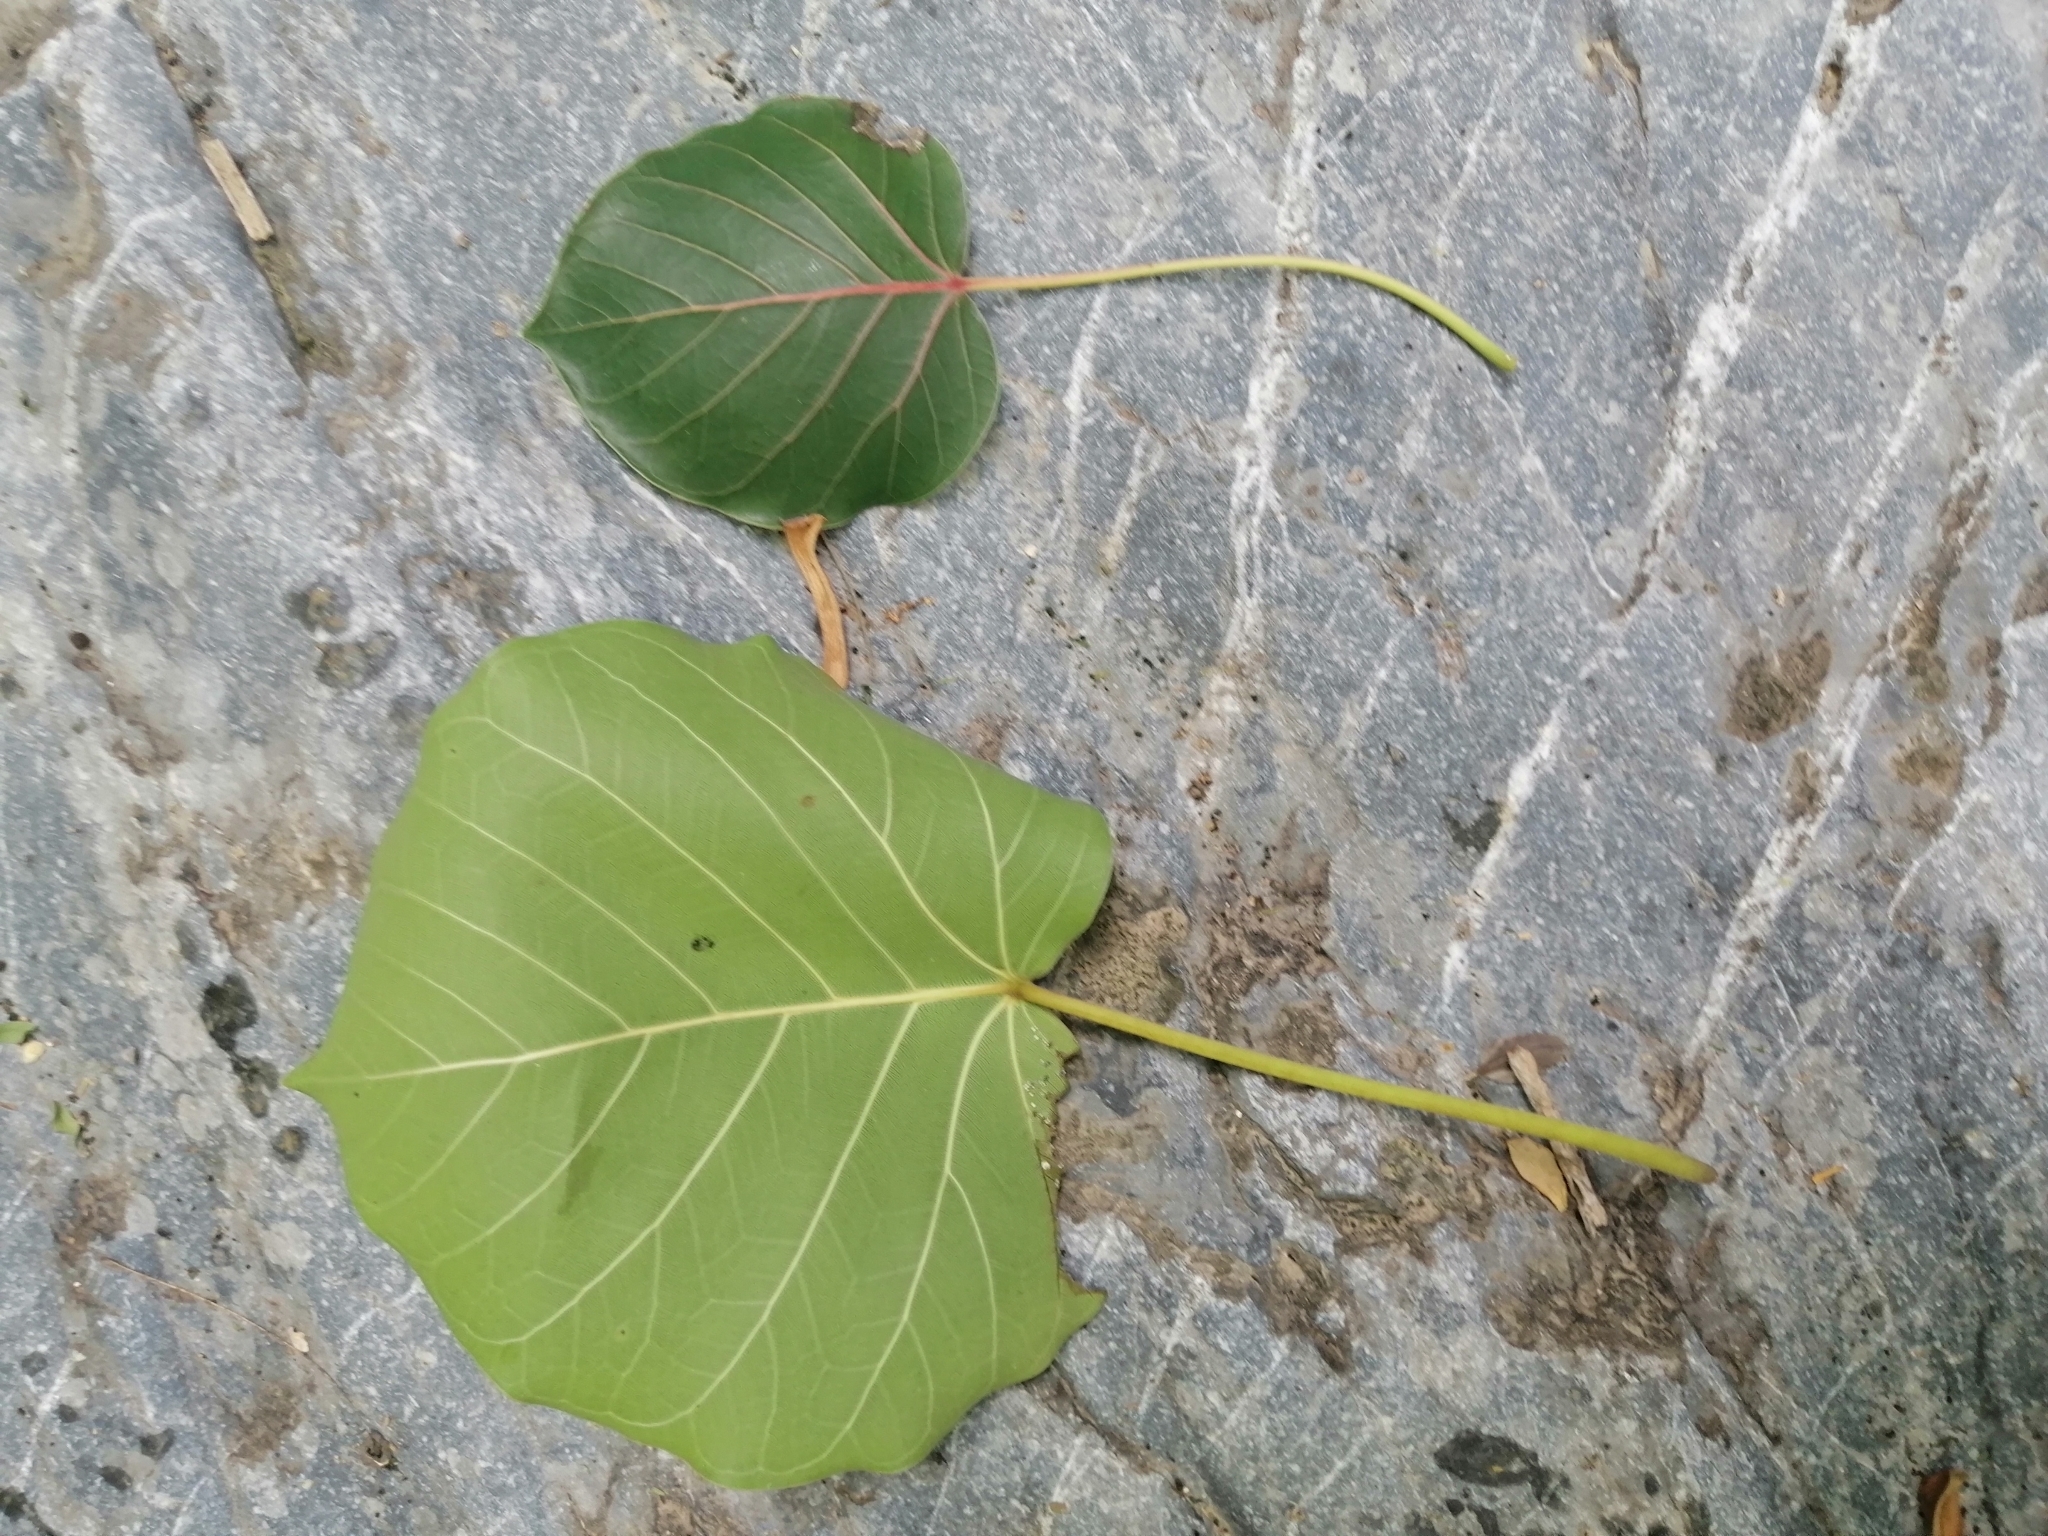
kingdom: Plantae
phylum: Tracheophyta
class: Magnoliopsida
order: Rosales
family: Moraceae
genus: Ficus
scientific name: Ficus petiolaris
